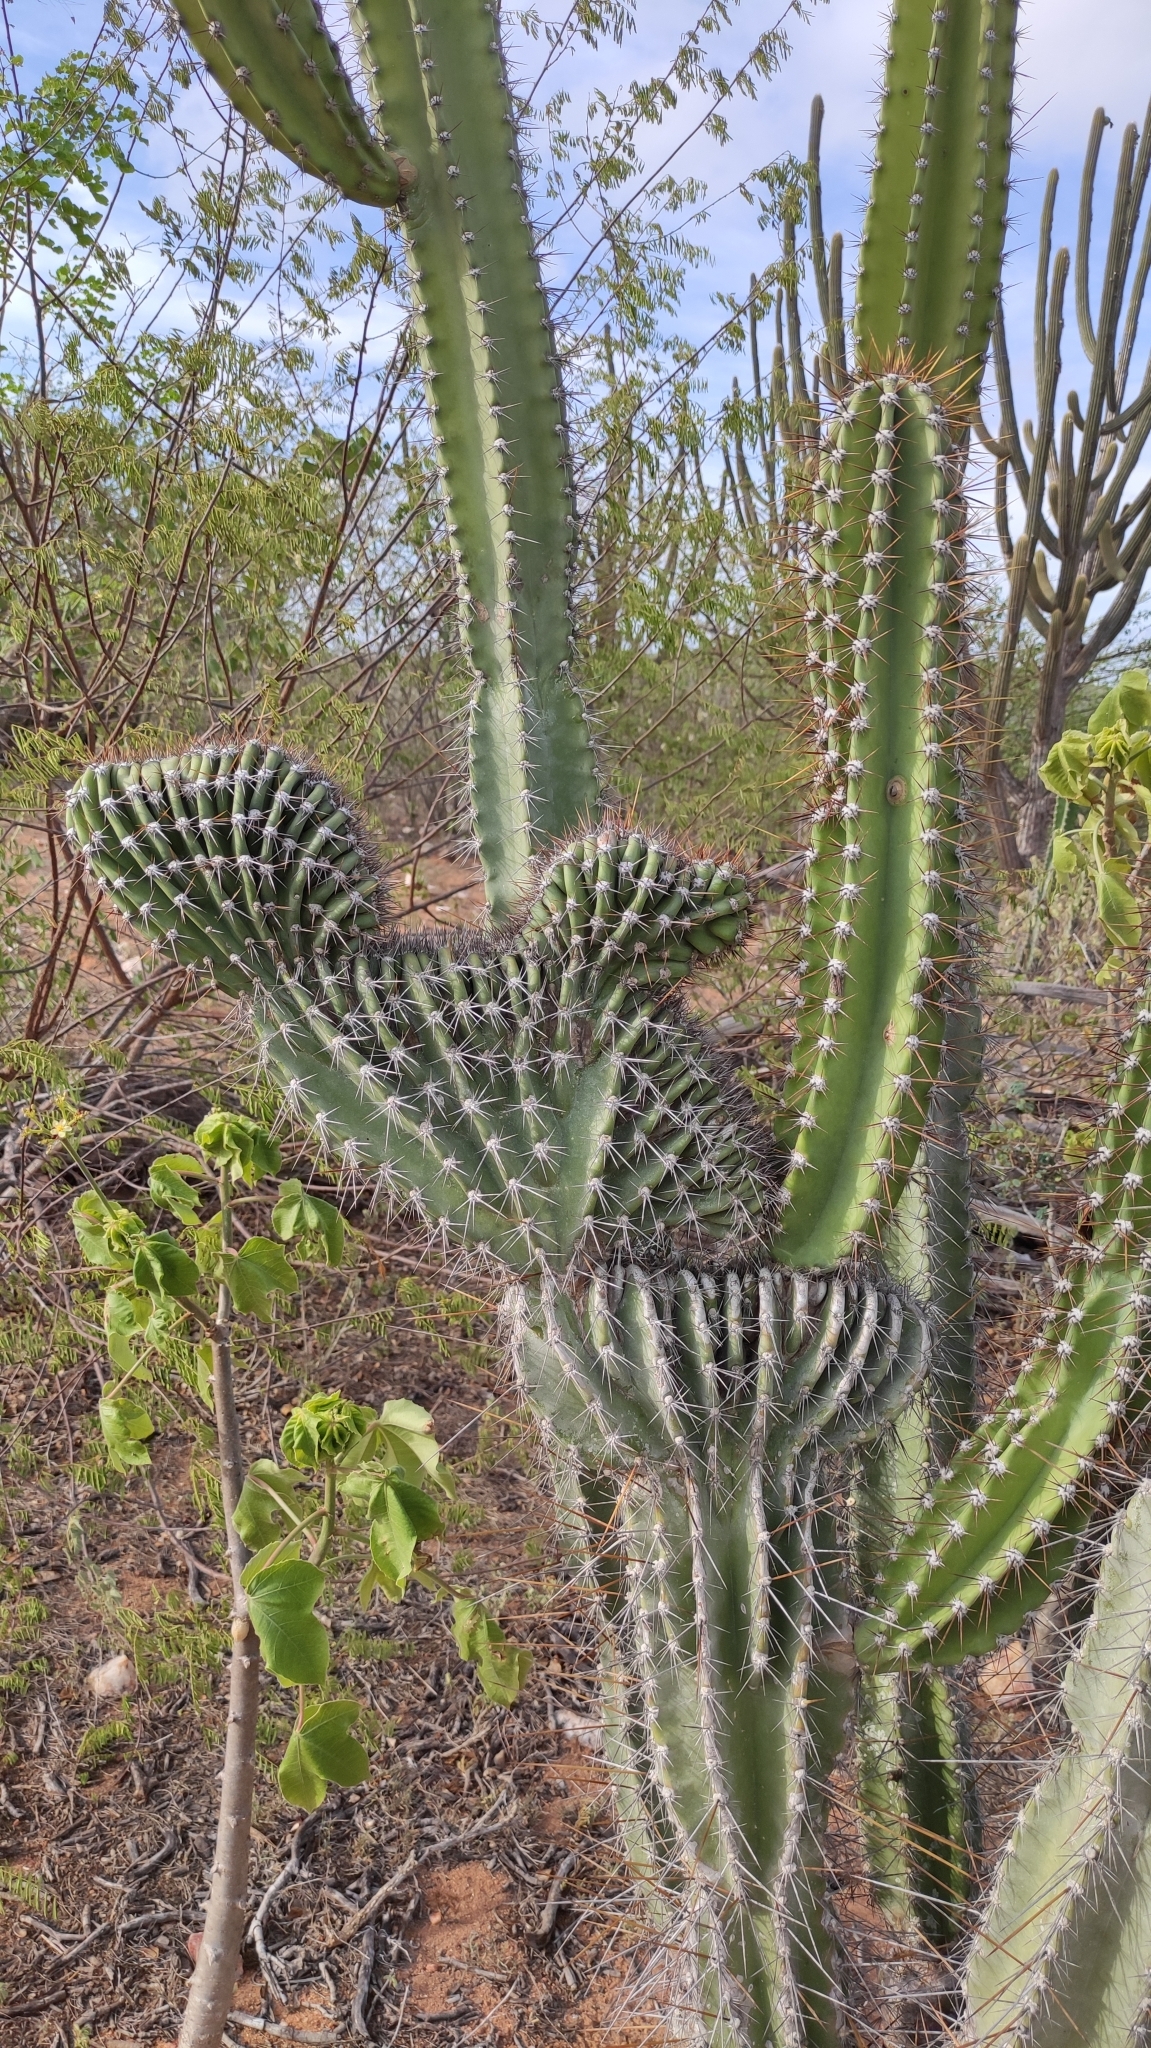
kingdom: Plantae
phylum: Tracheophyta
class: Magnoliopsida
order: Caryophyllales
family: Cactaceae
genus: Cereus
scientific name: Cereus jamacaru
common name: Queen-of-the-night
